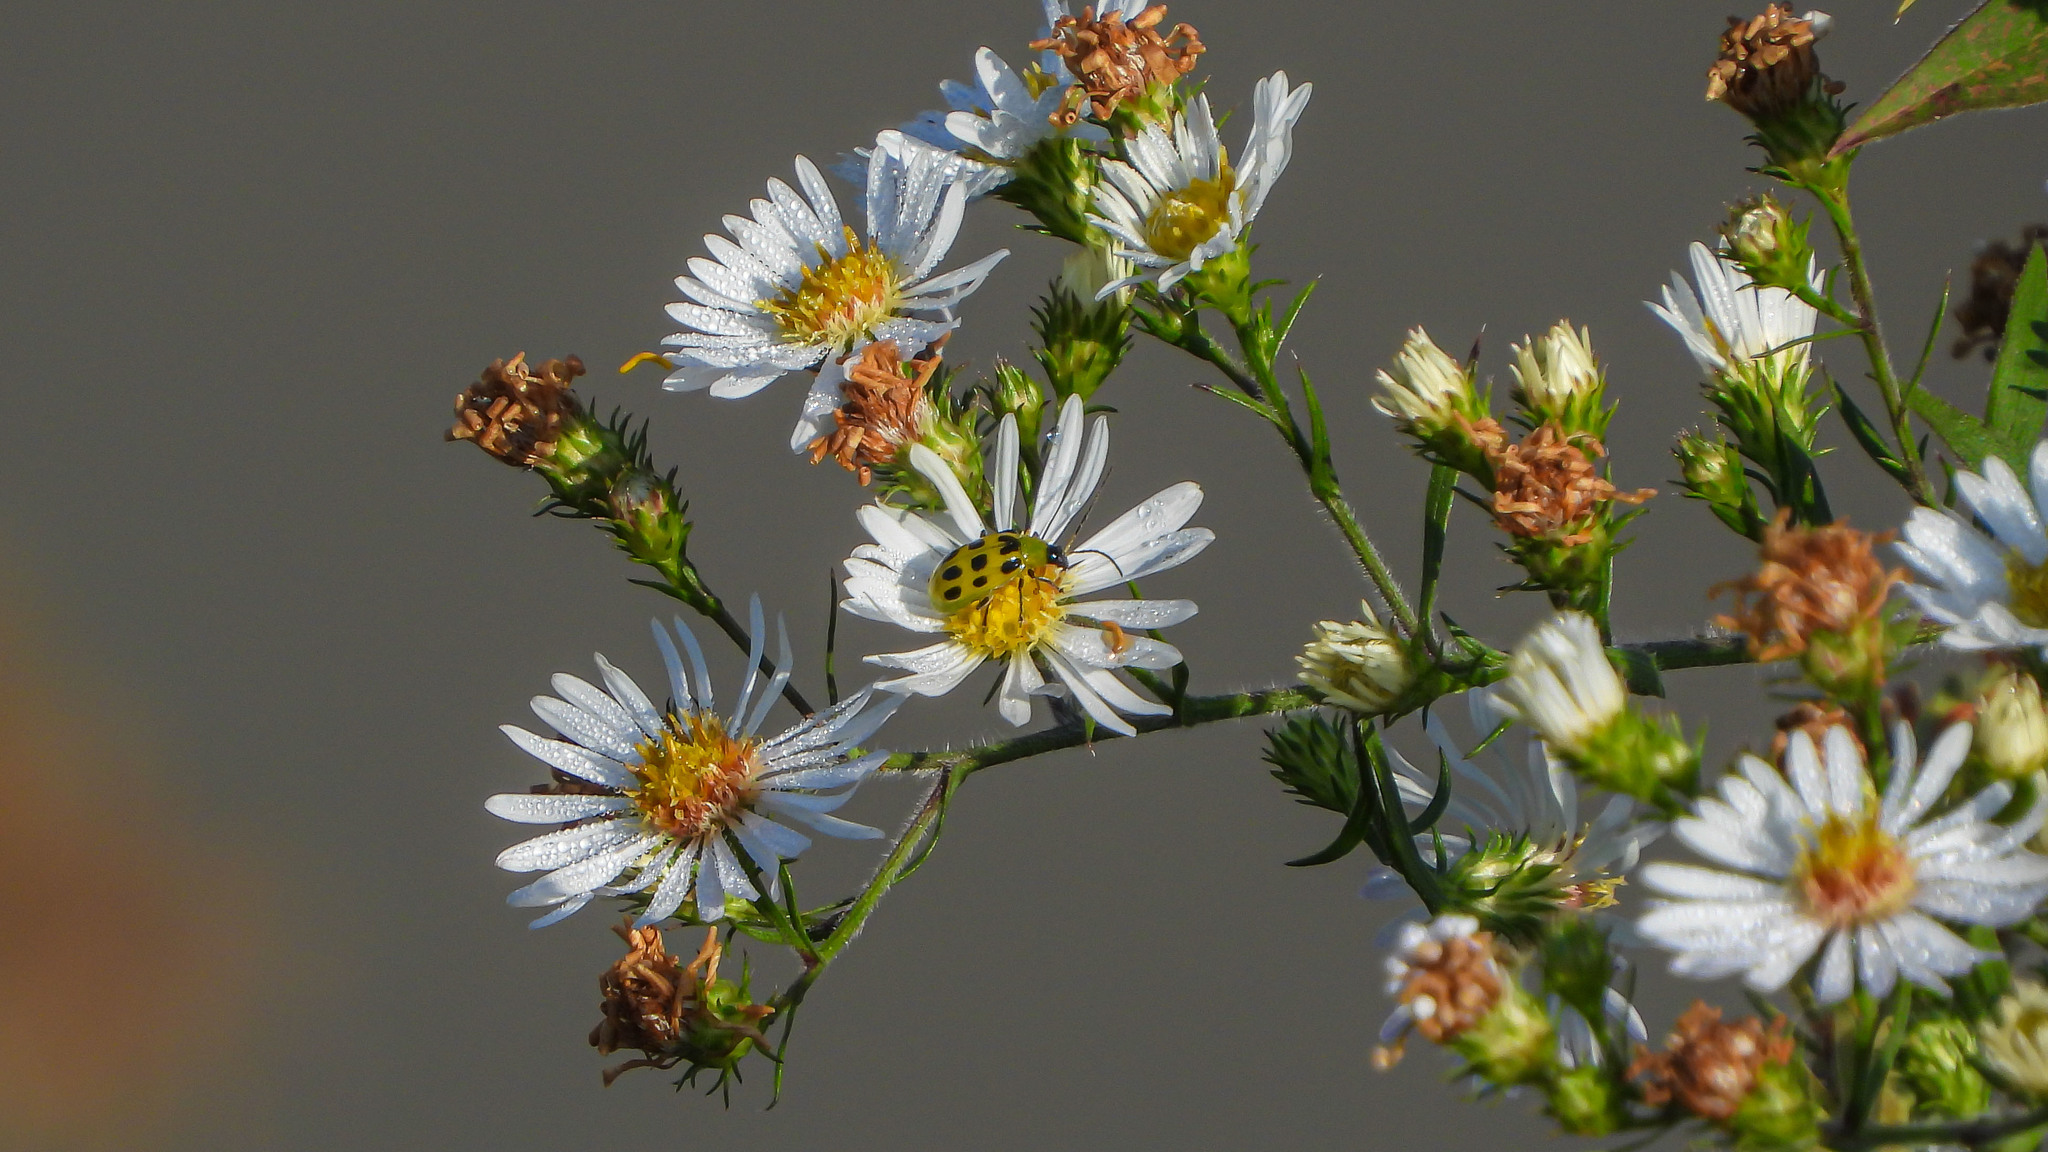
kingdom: Animalia
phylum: Arthropoda
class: Insecta
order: Coleoptera
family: Chrysomelidae
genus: Diabrotica
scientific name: Diabrotica undecimpunctata
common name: Spotted cucumber beetle
